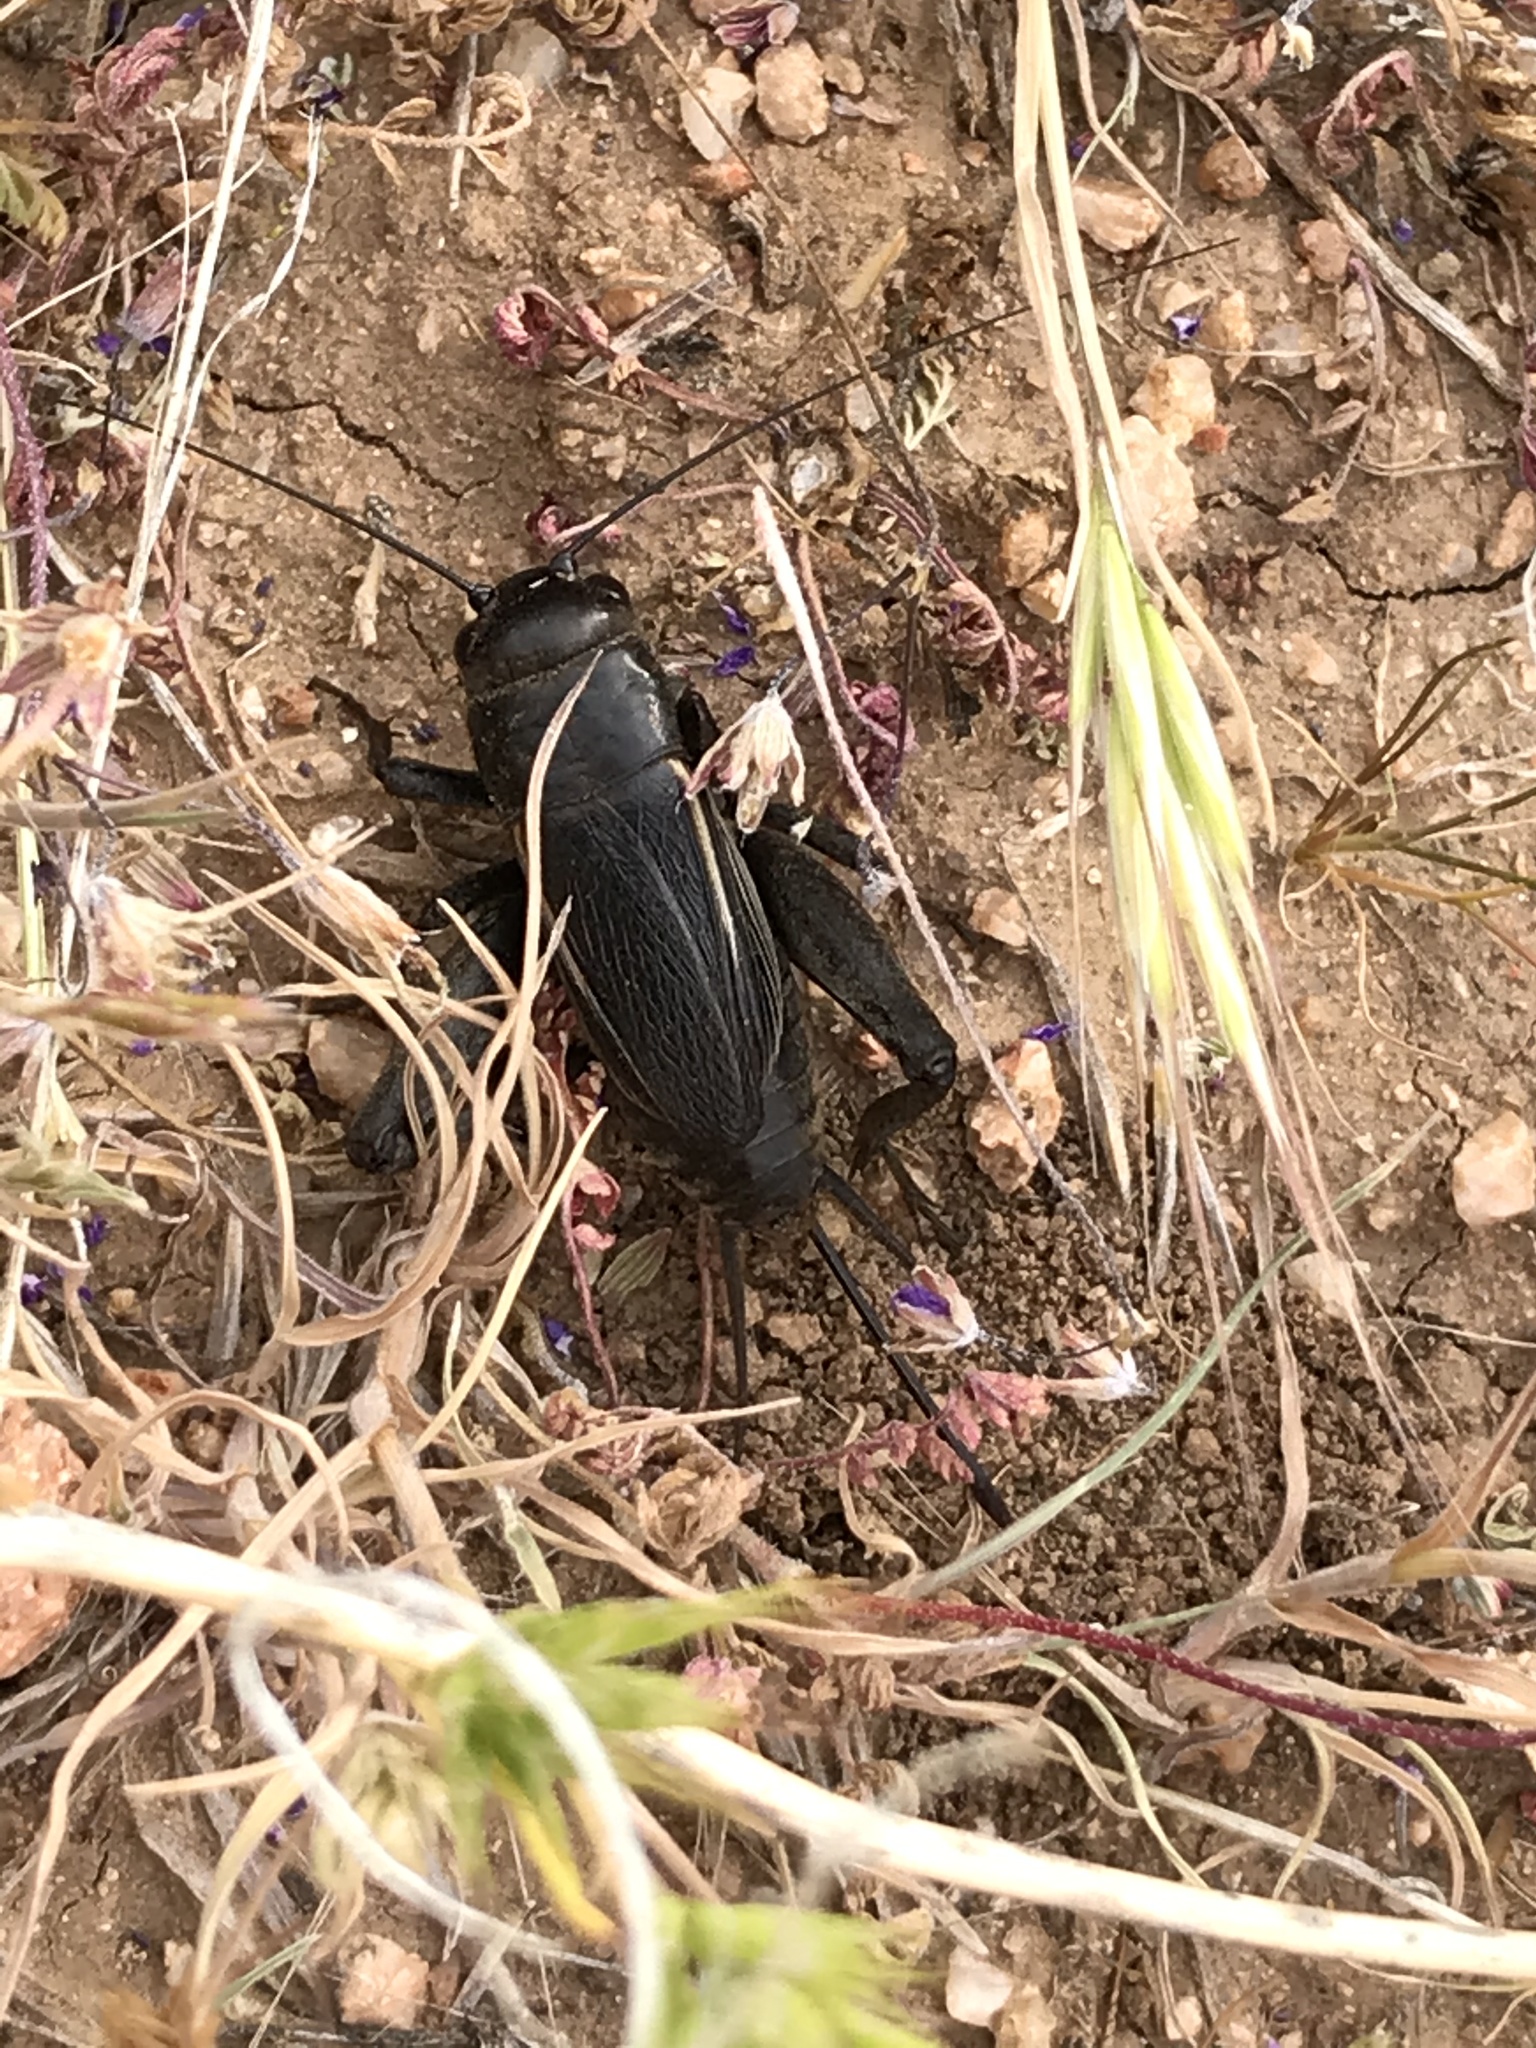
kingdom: Animalia
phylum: Arthropoda
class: Insecta
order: Orthoptera
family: Gryllidae
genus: Gryllus
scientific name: Gryllus
